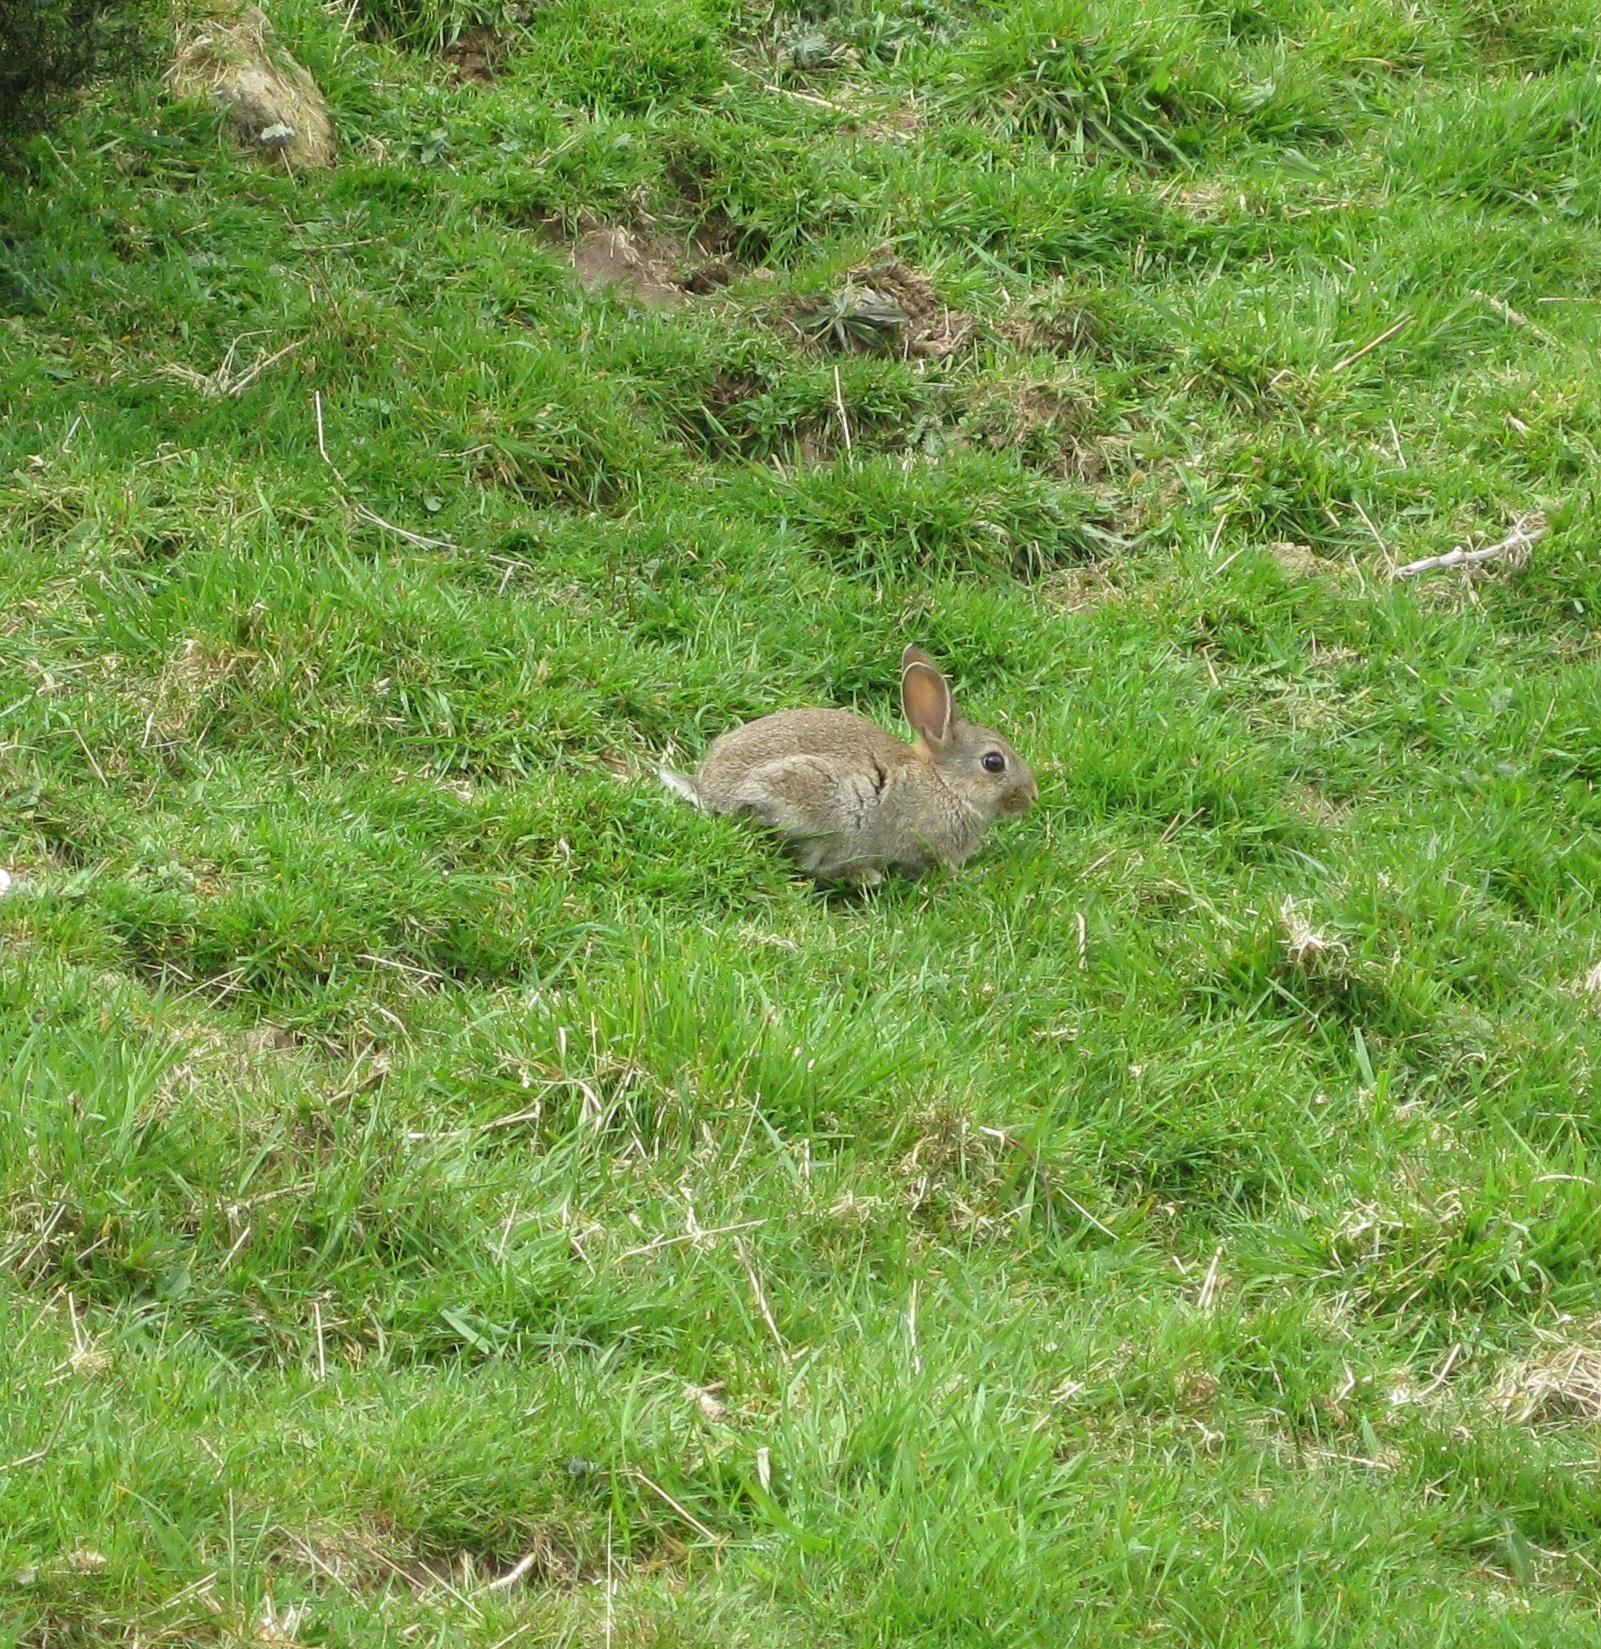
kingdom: Animalia
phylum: Chordata
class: Mammalia
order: Lagomorpha
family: Leporidae
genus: Oryctolagus
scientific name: Oryctolagus cuniculus
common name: European rabbit
